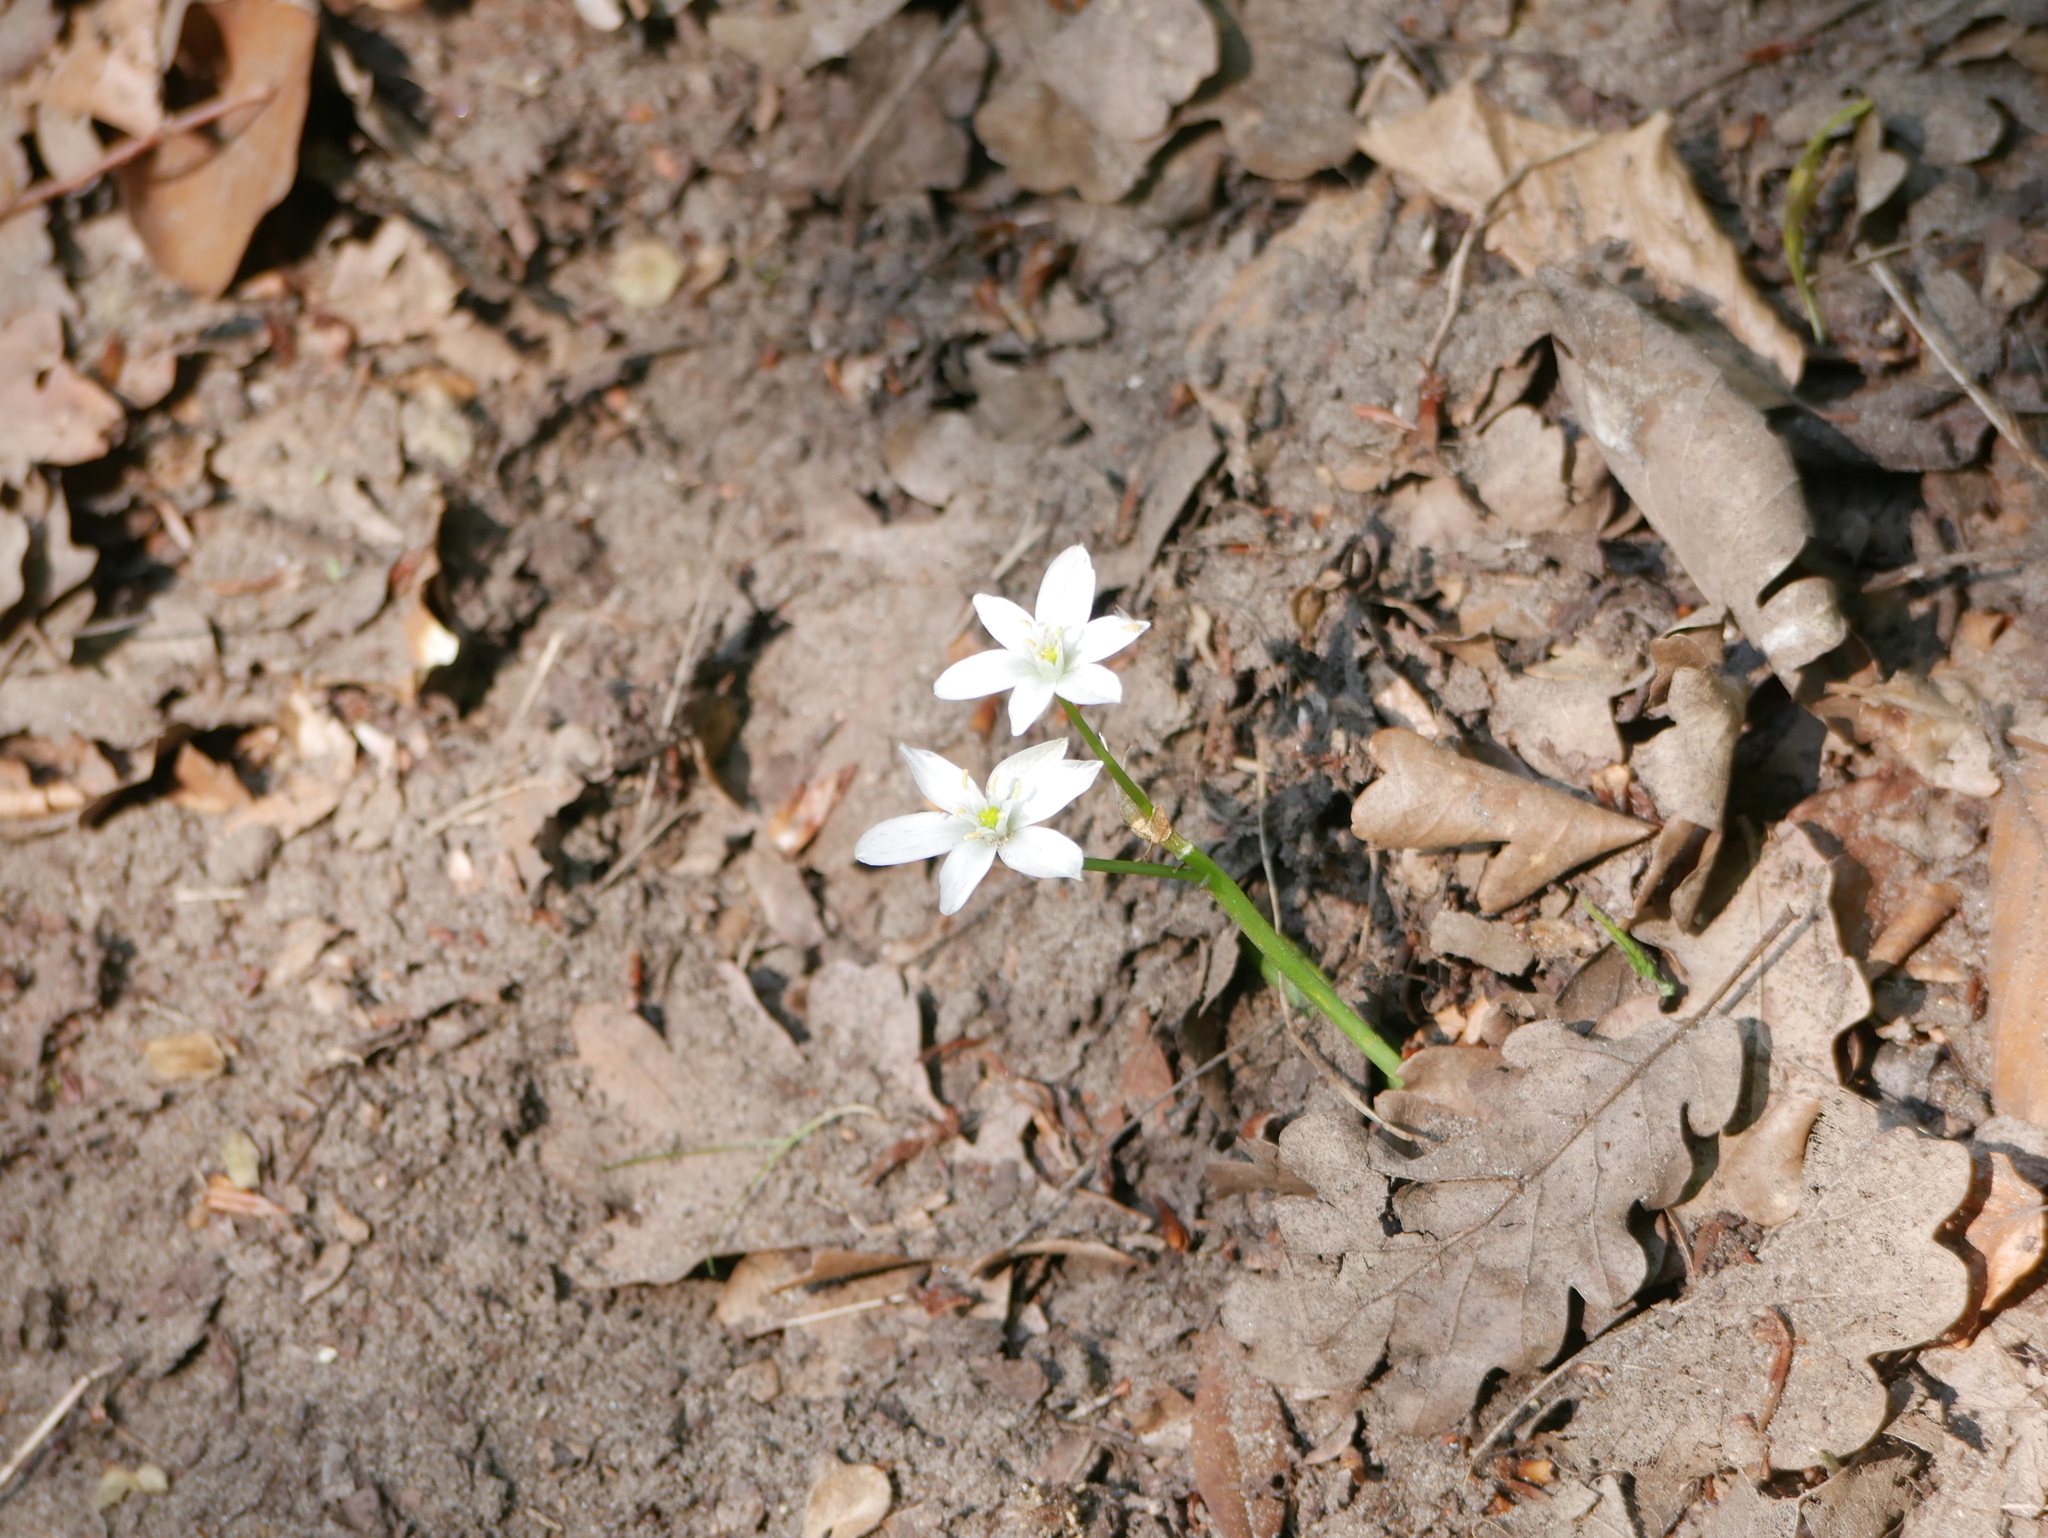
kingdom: Plantae
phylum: Tracheophyta
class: Liliopsida
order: Asparagales
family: Asparagaceae
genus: Ornithogalum
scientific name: Ornithogalum umbellatum
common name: Garden star-of-bethlehem
